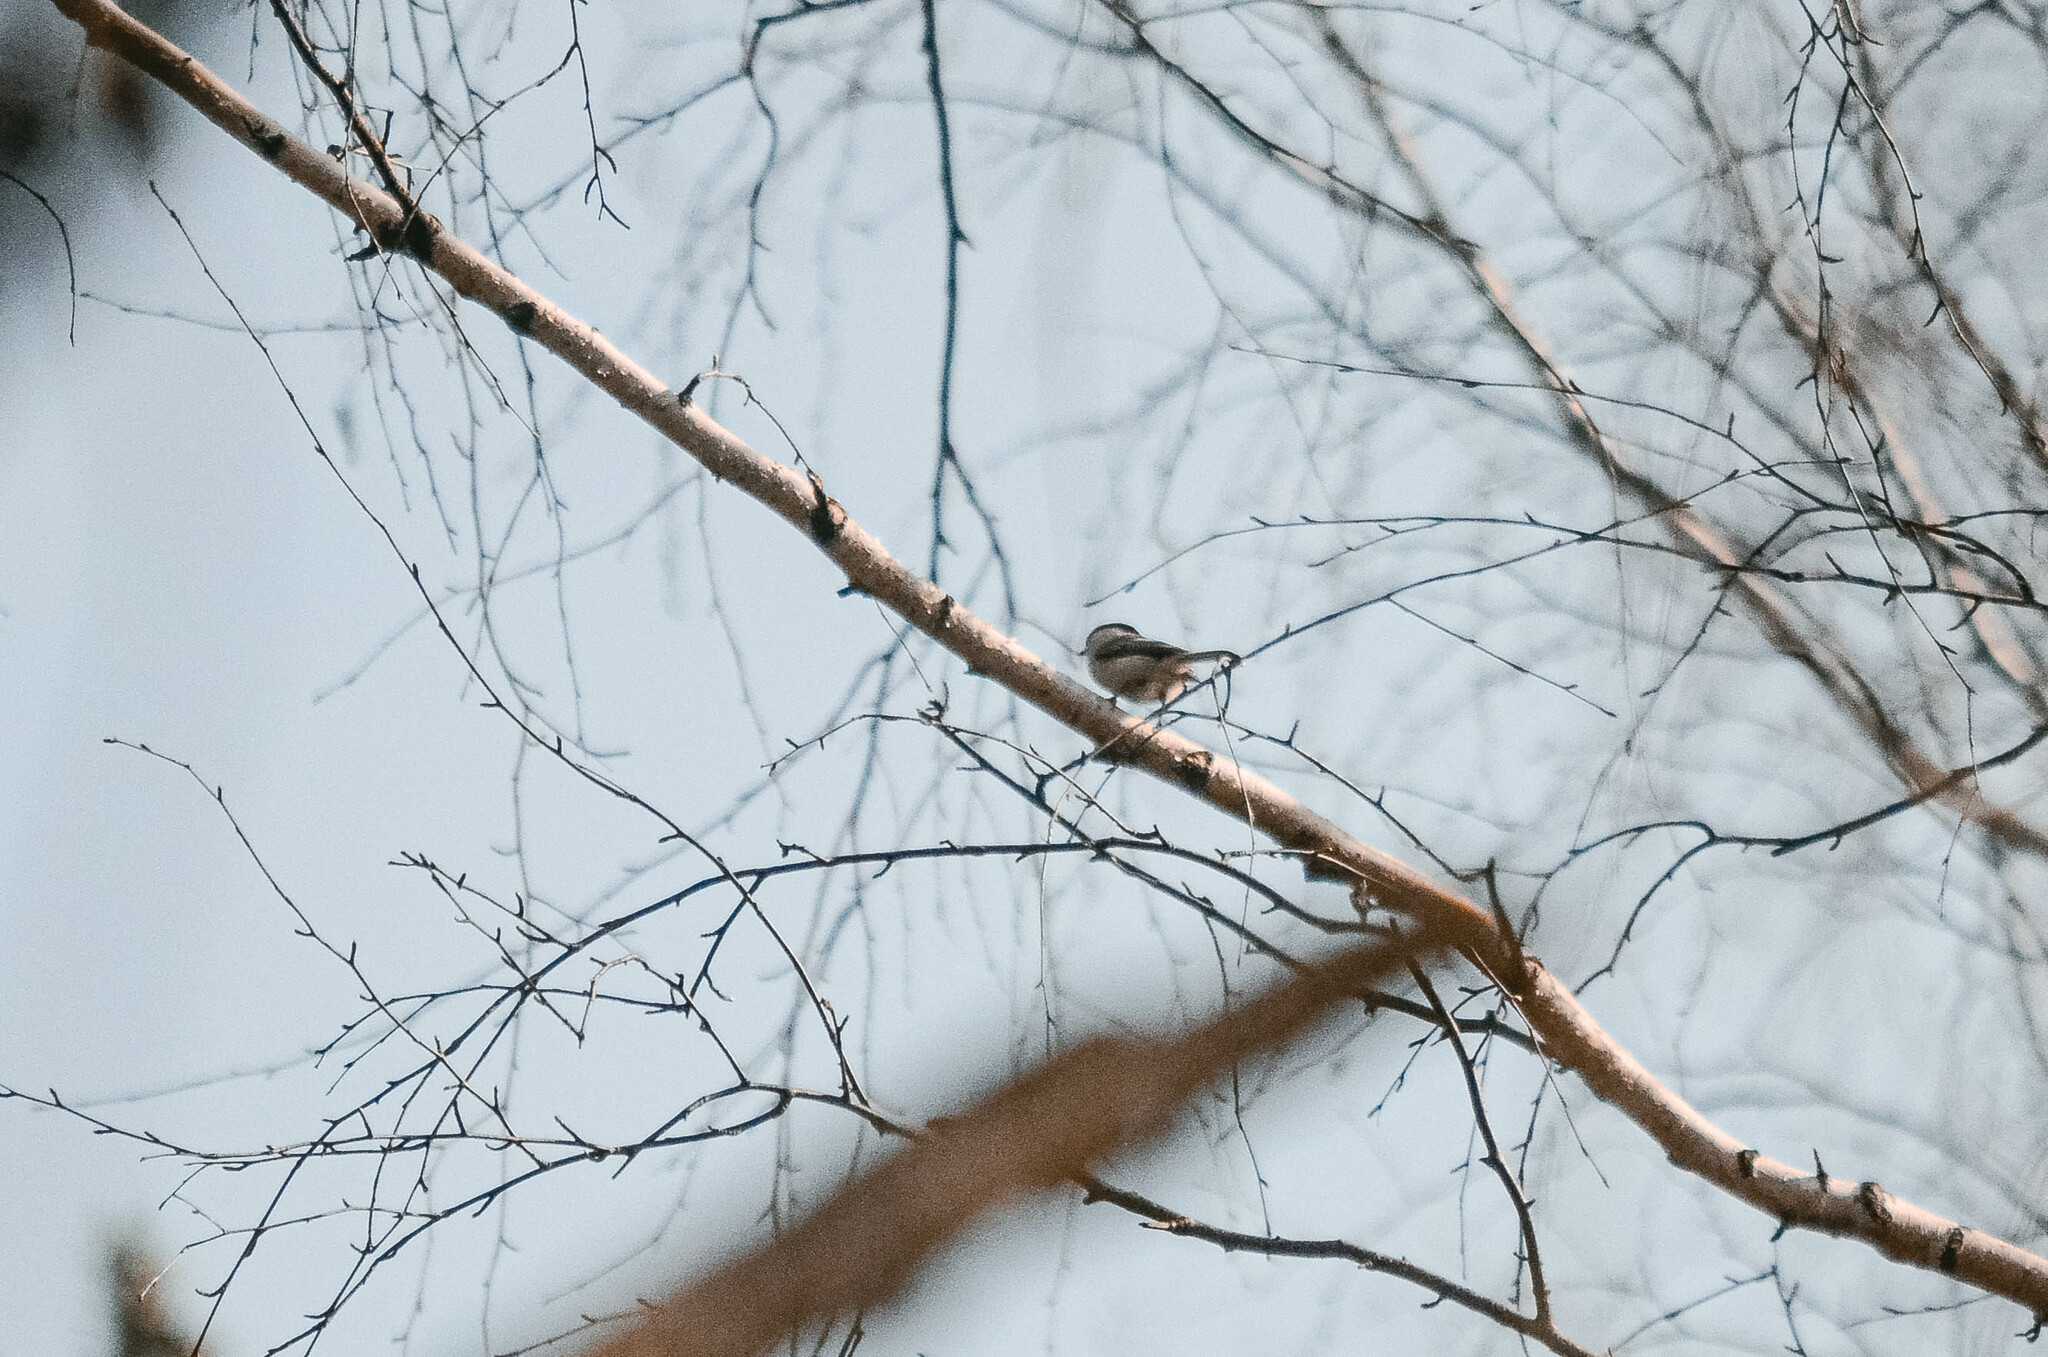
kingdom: Animalia
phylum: Chordata
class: Aves
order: Passeriformes
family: Paridae
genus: Poecile
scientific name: Poecile montanus
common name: Willow tit
